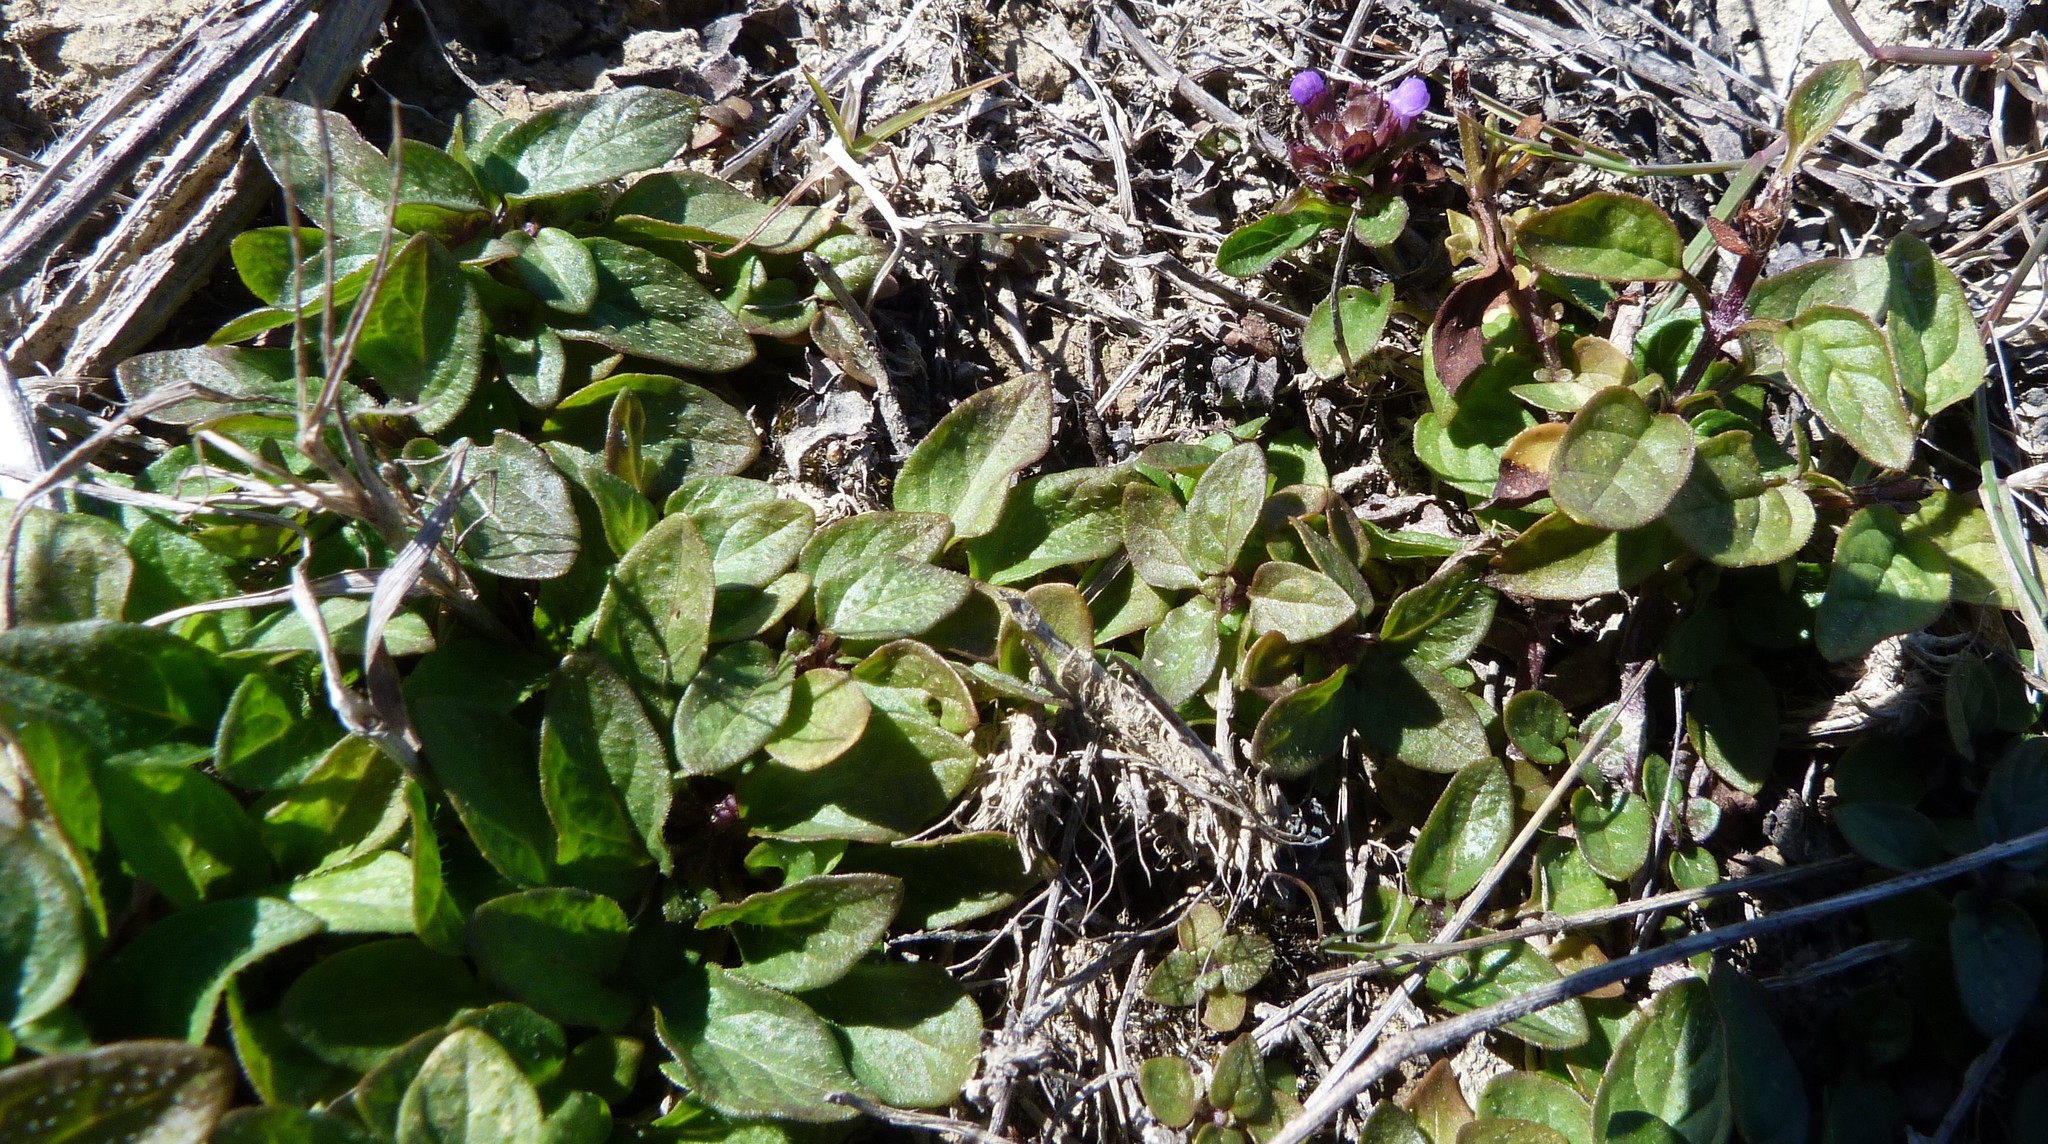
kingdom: Plantae
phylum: Tracheophyta
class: Magnoliopsida
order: Lamiales
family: Lamiaceae
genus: Prunella
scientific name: Prunella vulgaris
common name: Heal-all
